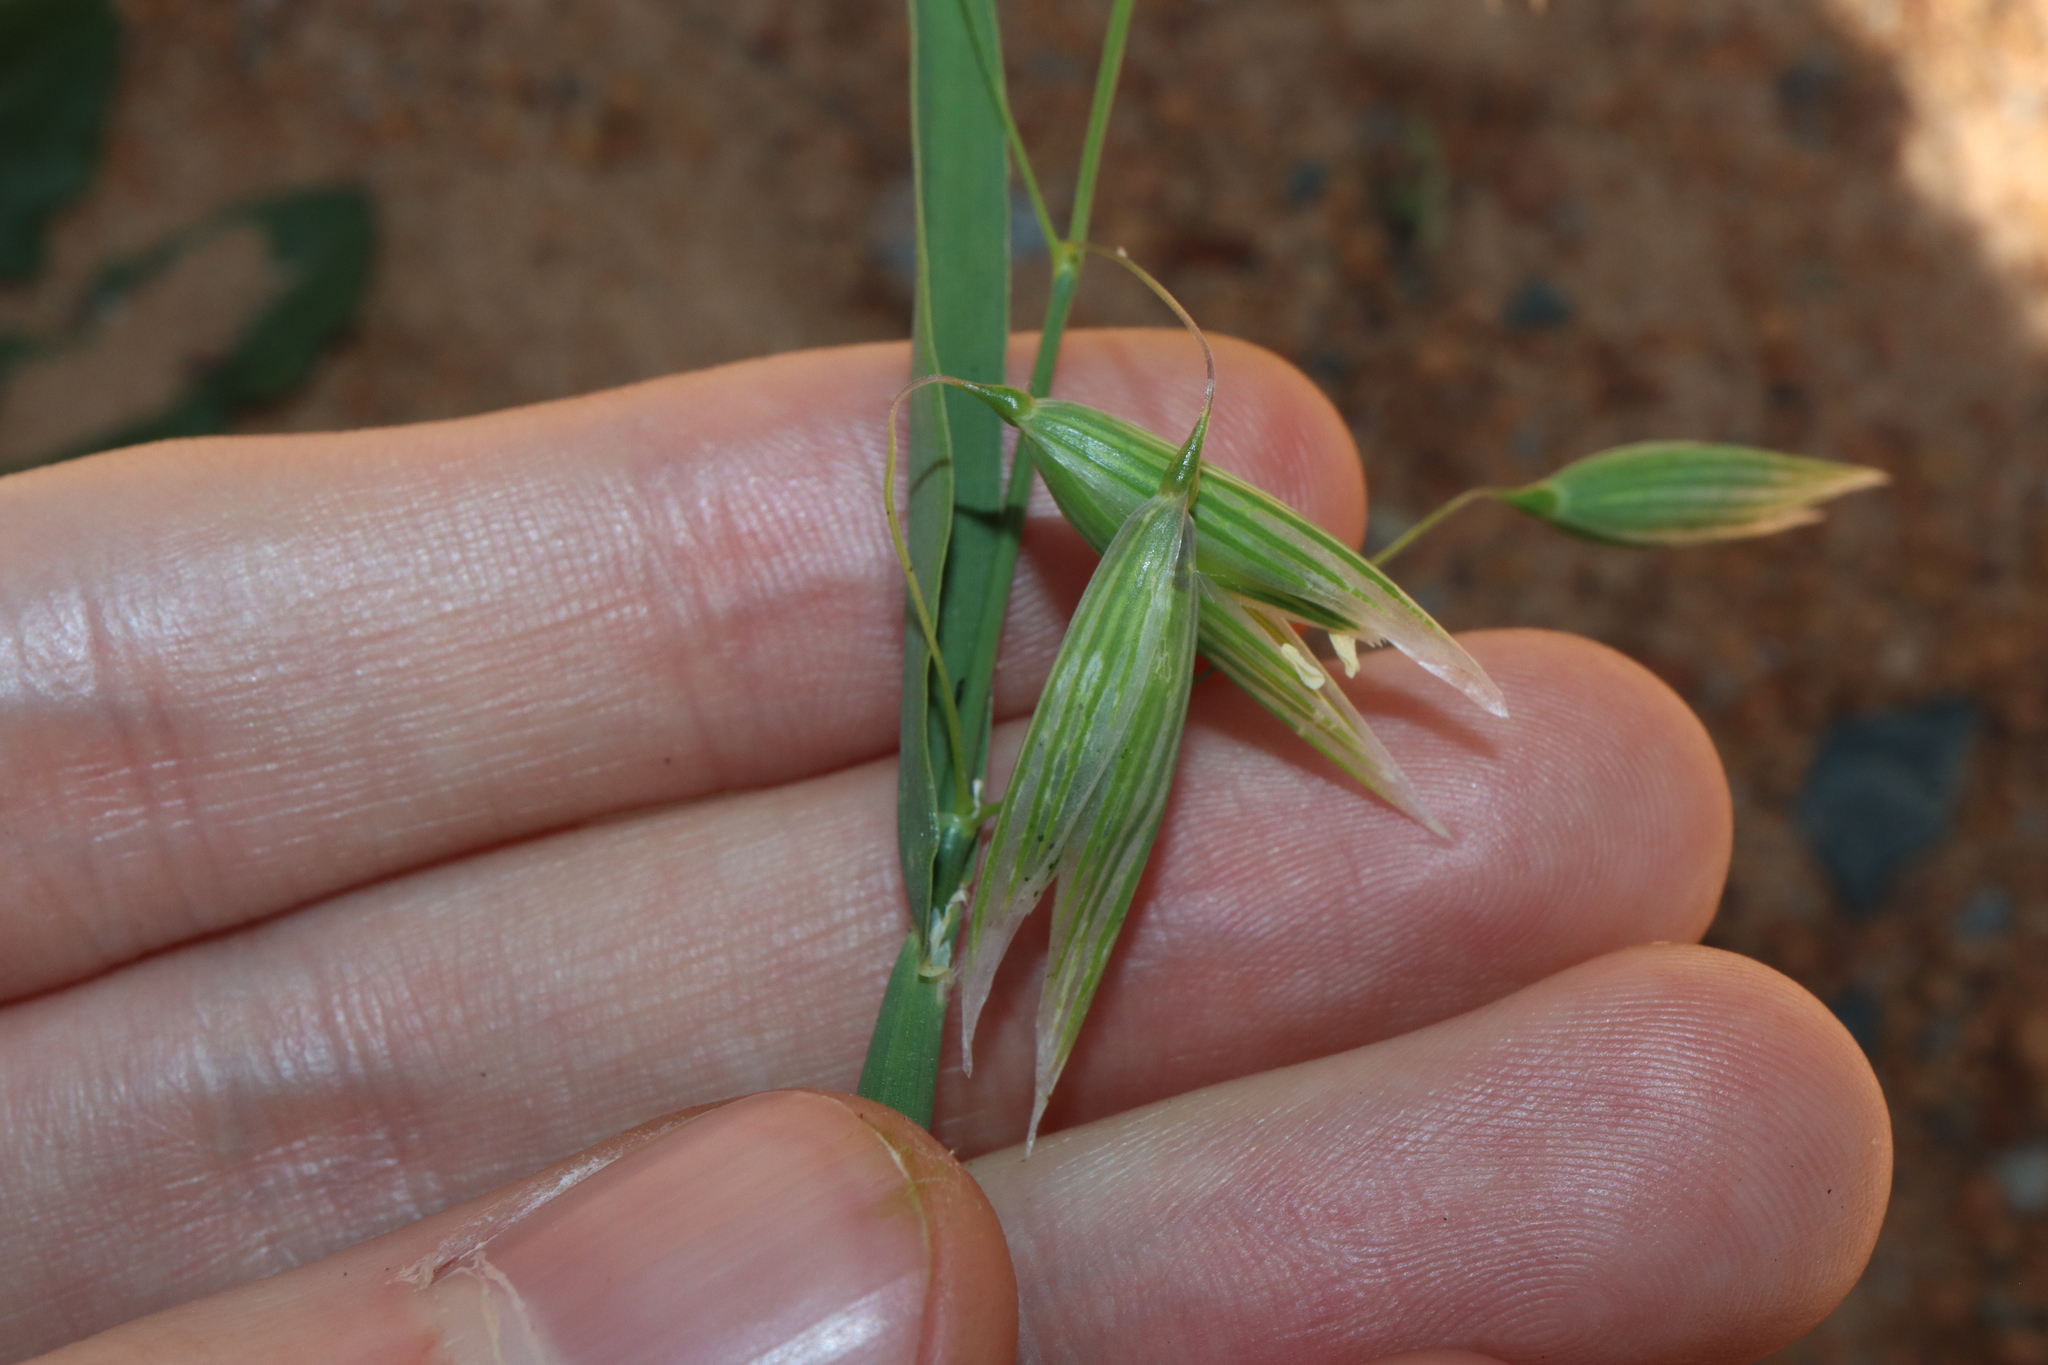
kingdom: Plantae
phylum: Tracheophyta
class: Liliopsida
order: Poales
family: Poaceae
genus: Avena
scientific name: Avena sativa
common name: Oat
